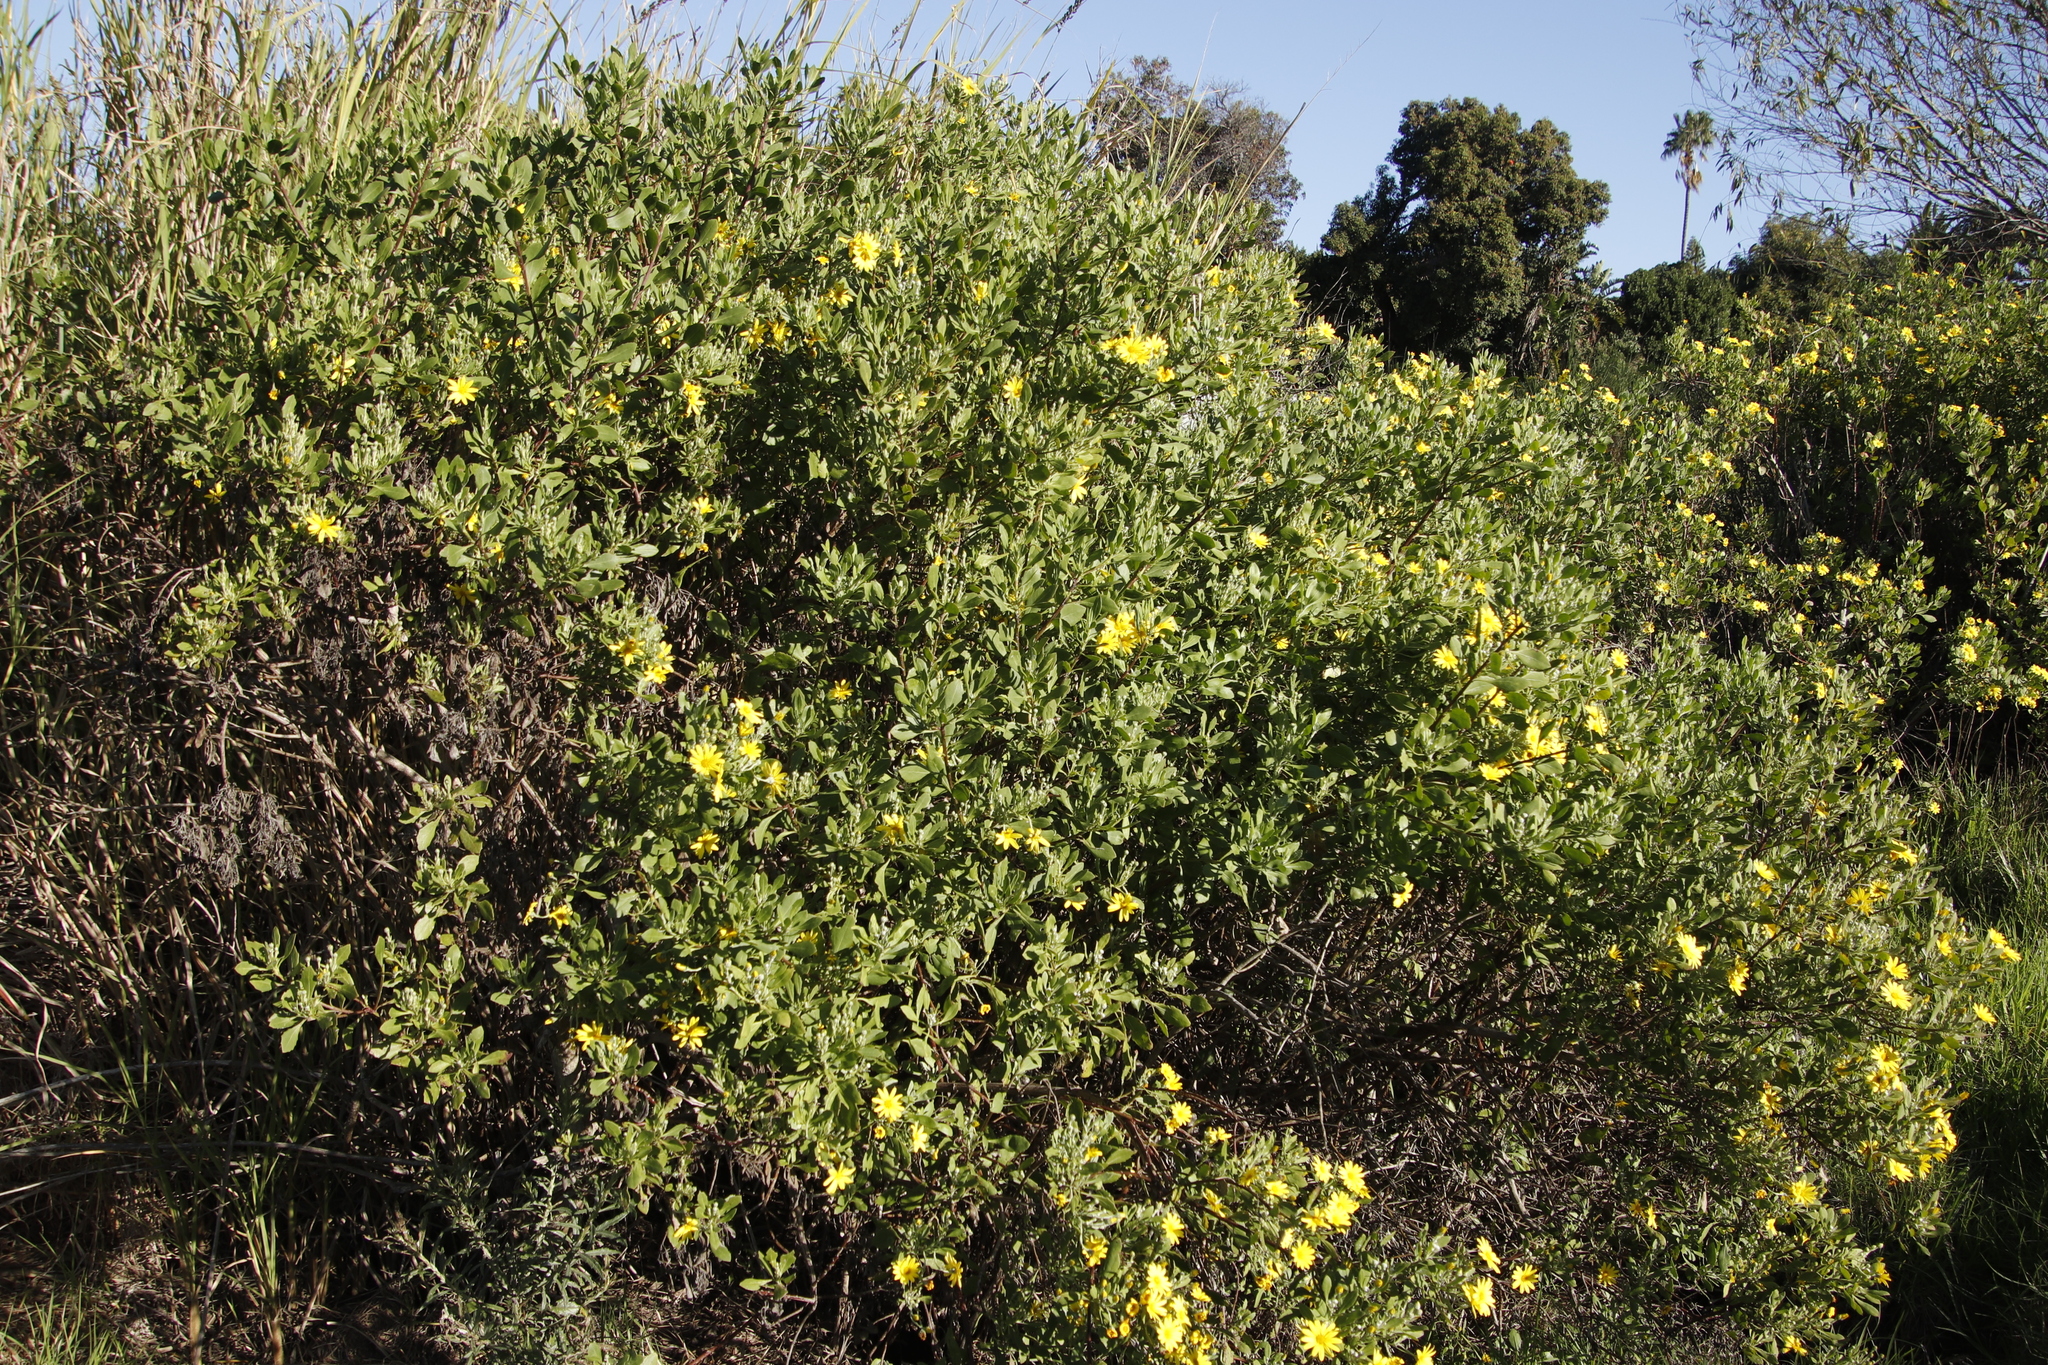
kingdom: Plantae
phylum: Tracheophyta
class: Magnoliopsida
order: Asterales
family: Asteraceae
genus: Osteospermum
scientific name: Osteospermum moniliferum
